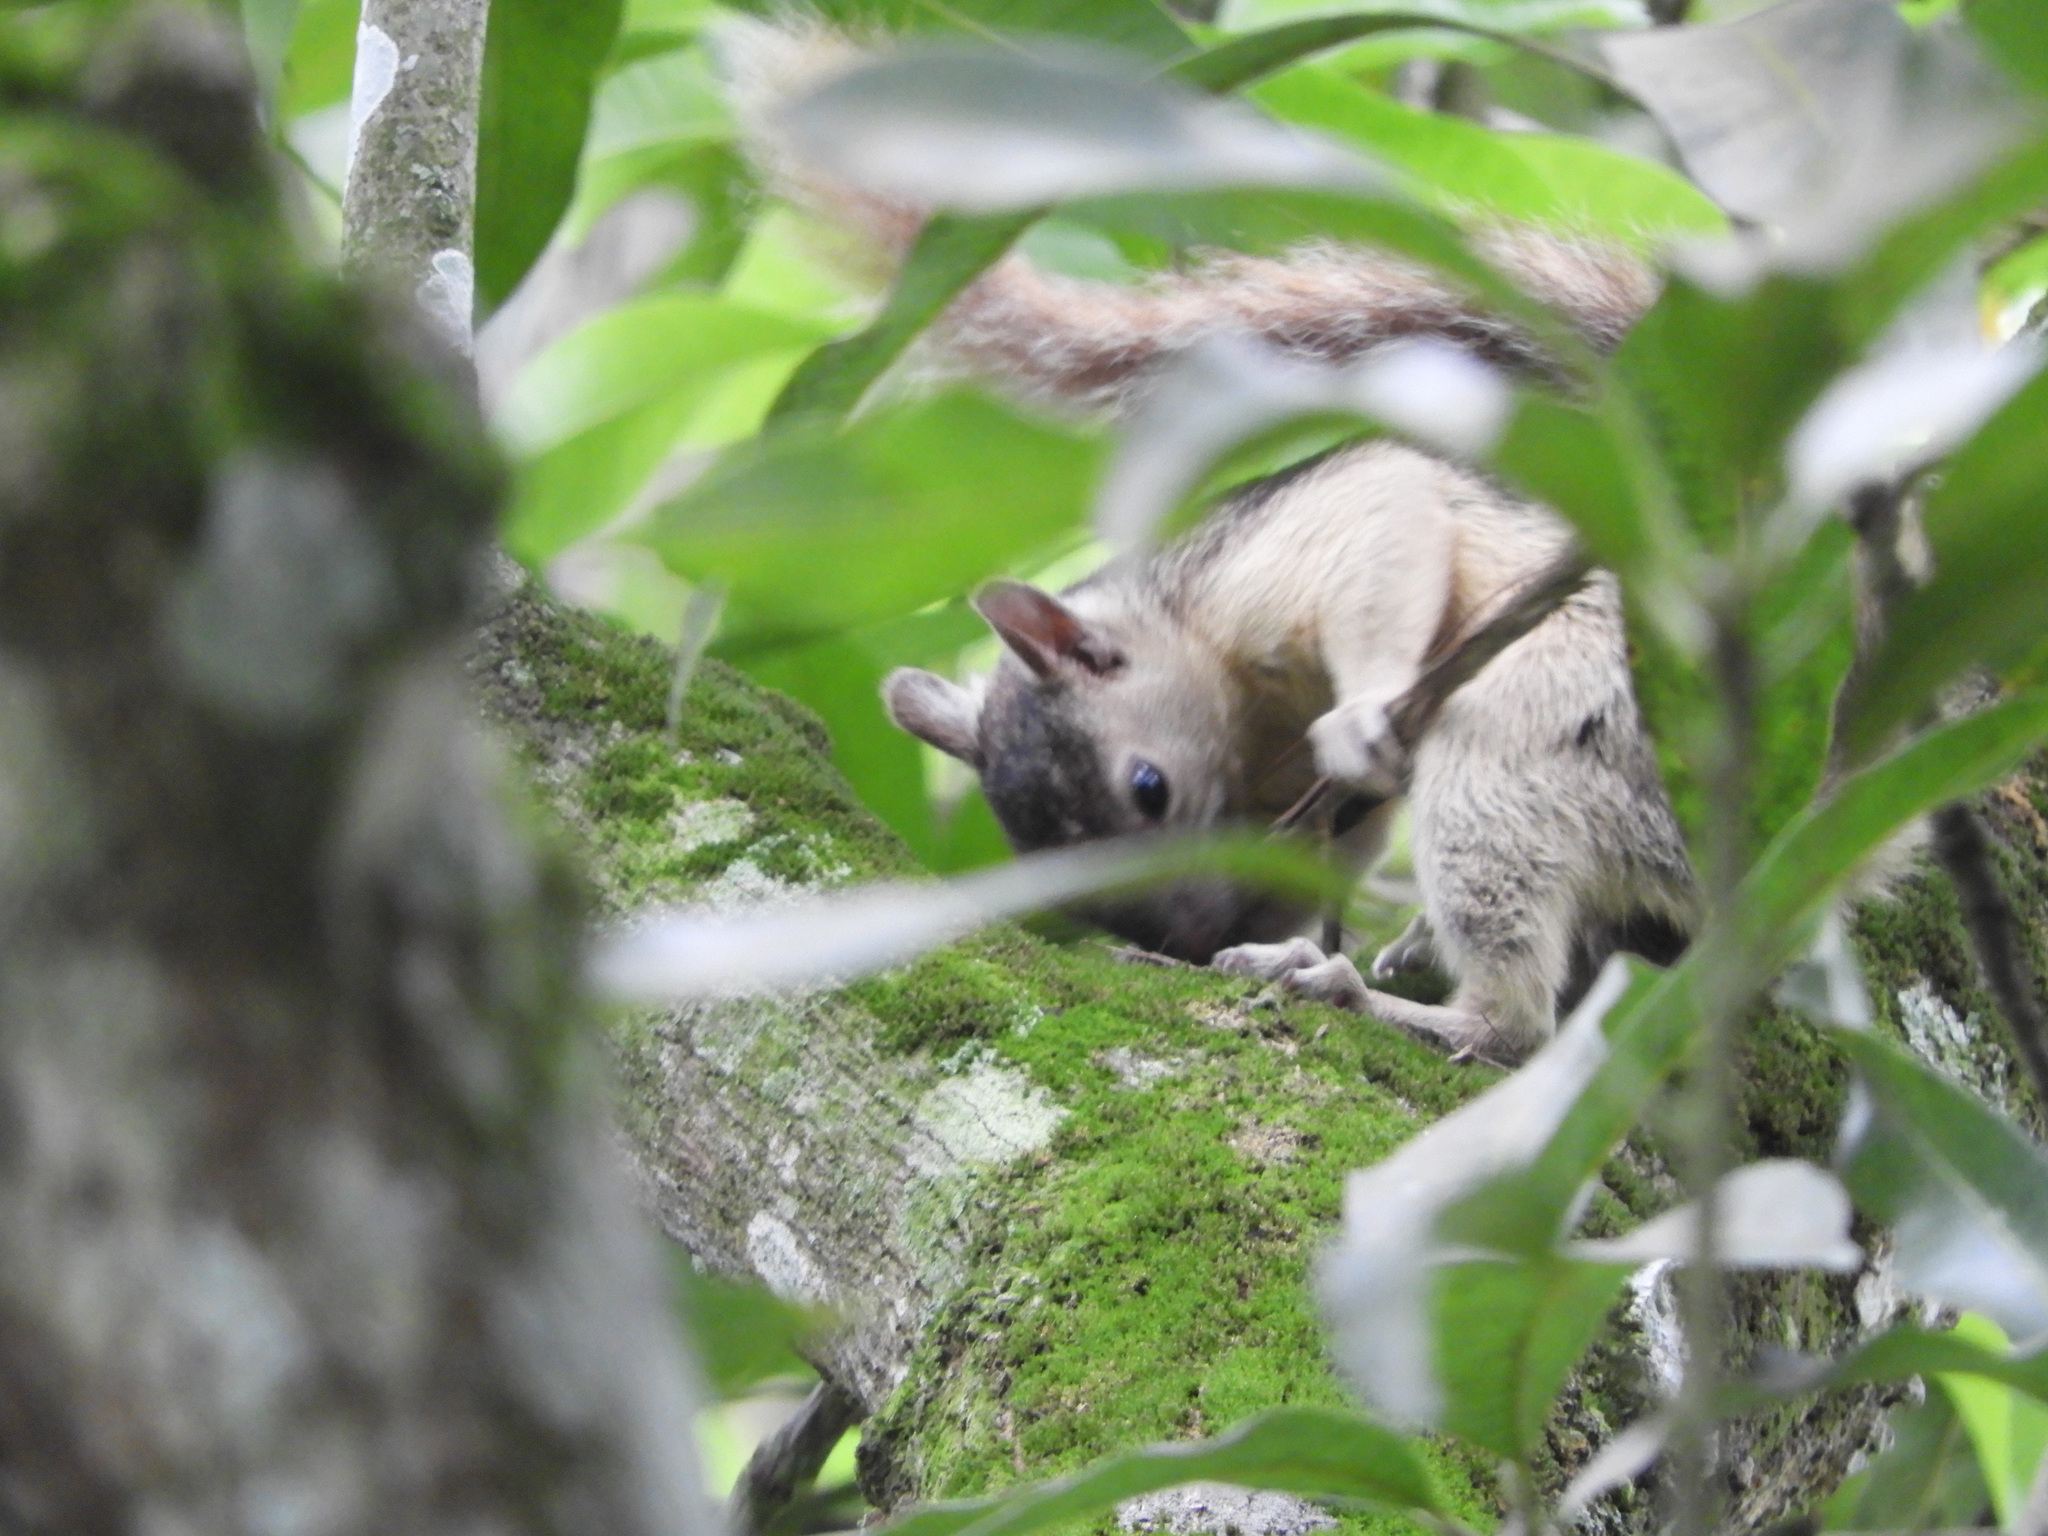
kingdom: Animalia
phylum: Chordata
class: Mammalia
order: Rodentia
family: Sciuridae
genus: Sciurus
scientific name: Sciurus variegatoides
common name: Variegated squirrel
